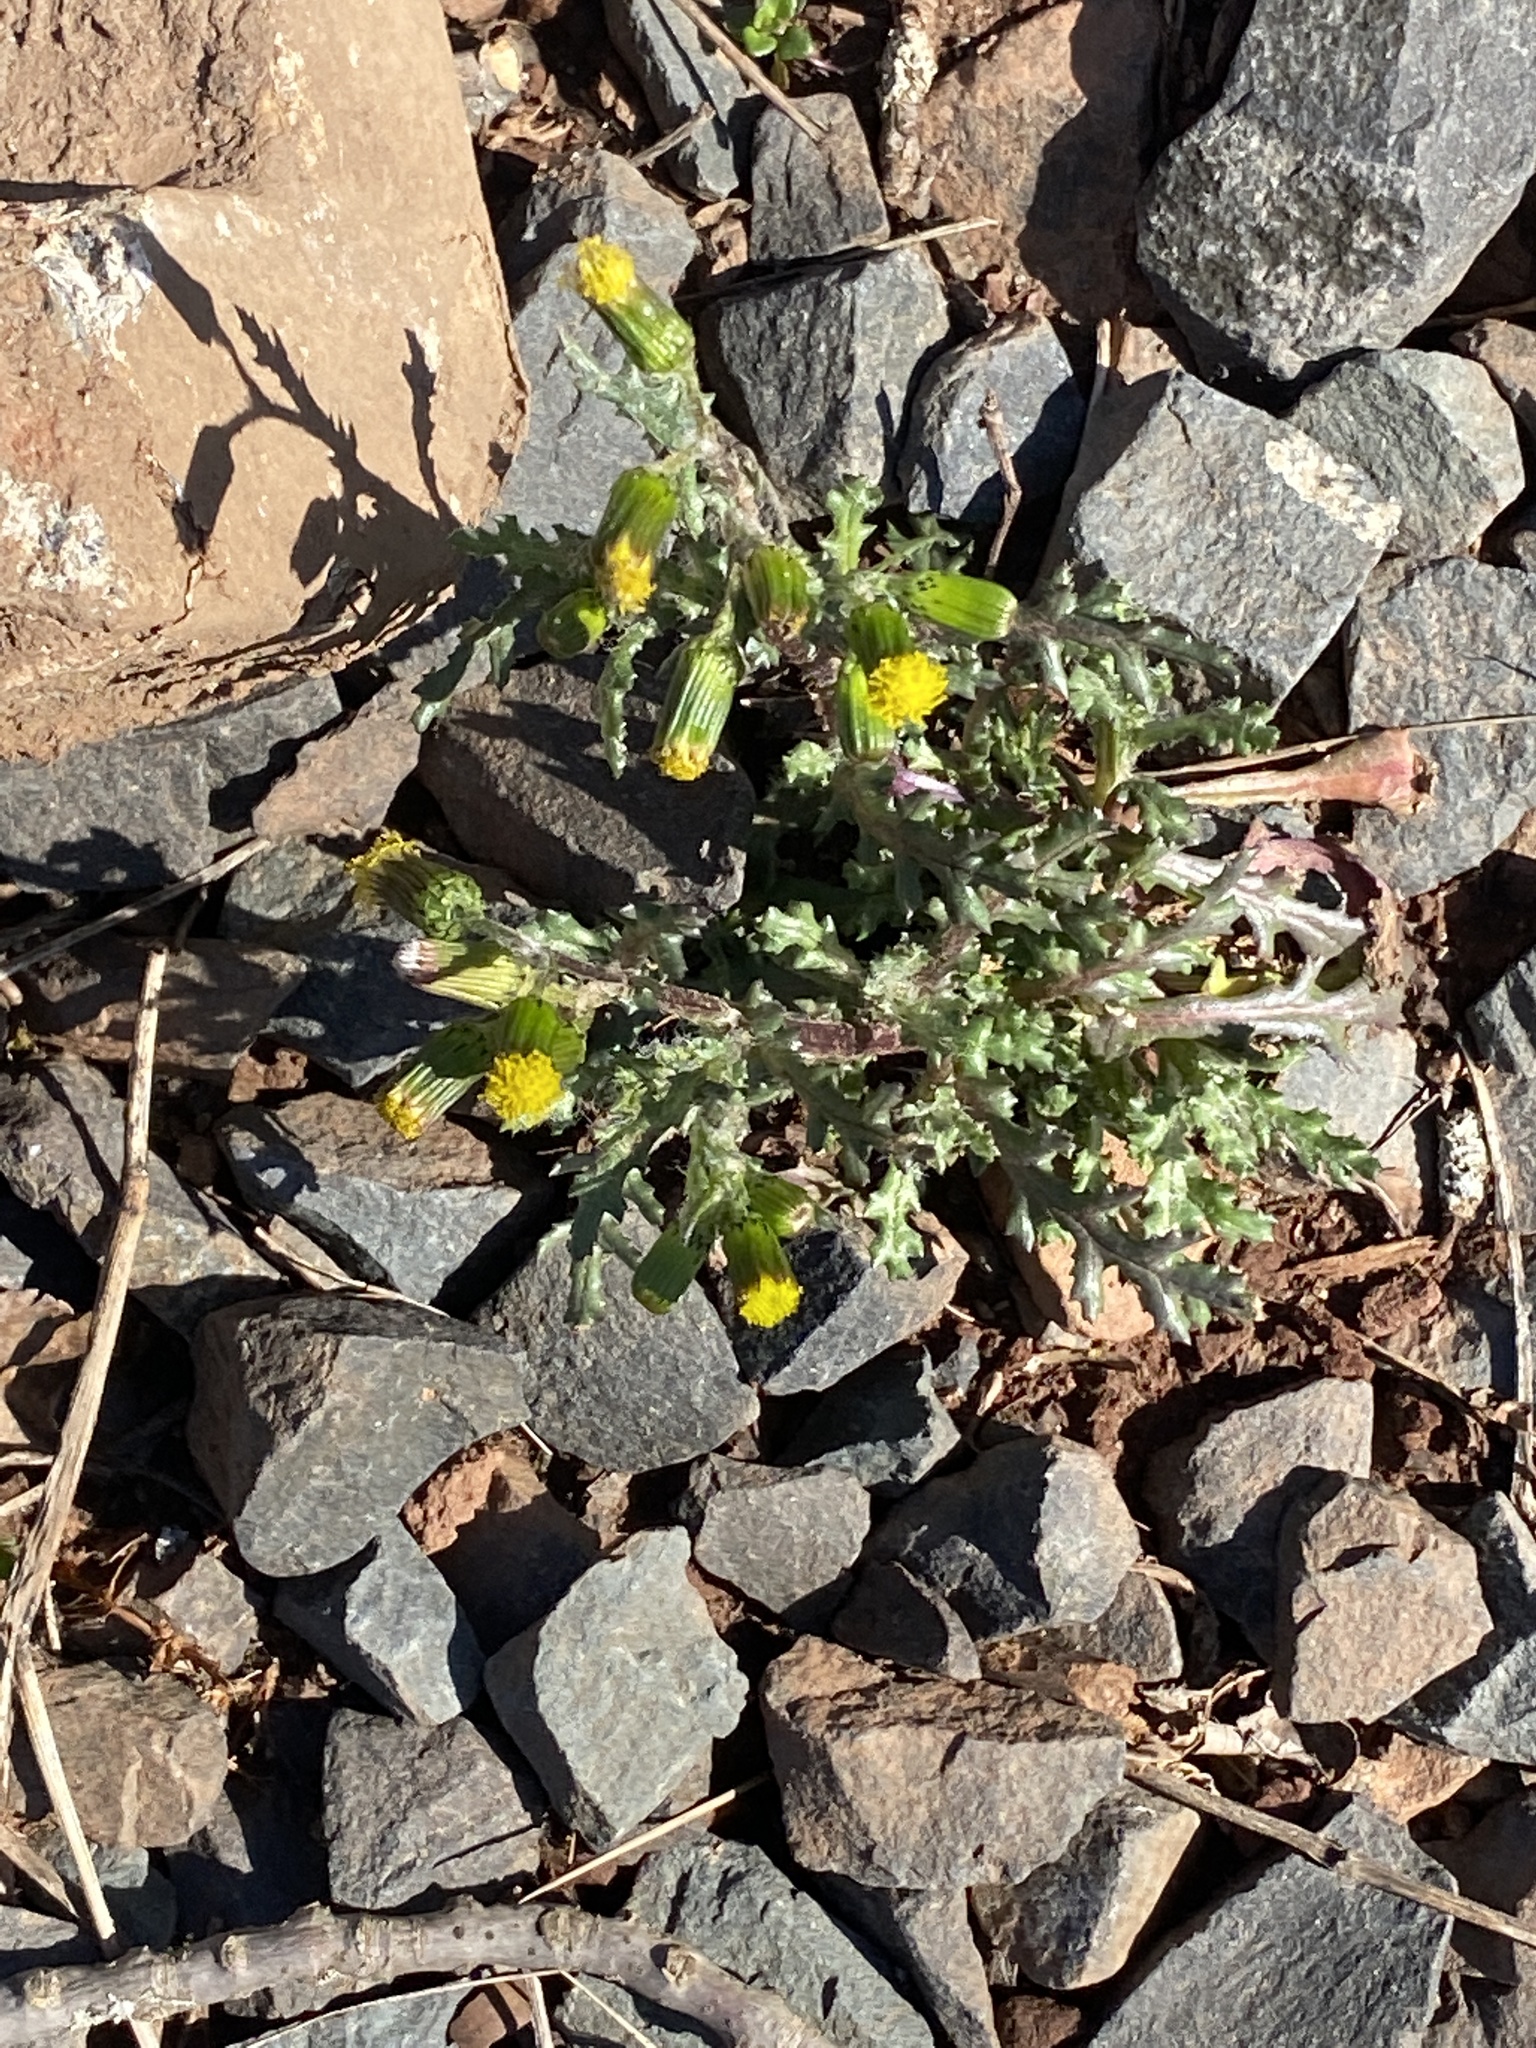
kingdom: Plantae
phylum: Tracheophyta
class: Magnoliopsida
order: Asterales
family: Asteraceae
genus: Senecio
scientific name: Senecio vulgaris
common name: Old-man-in-the-spring
